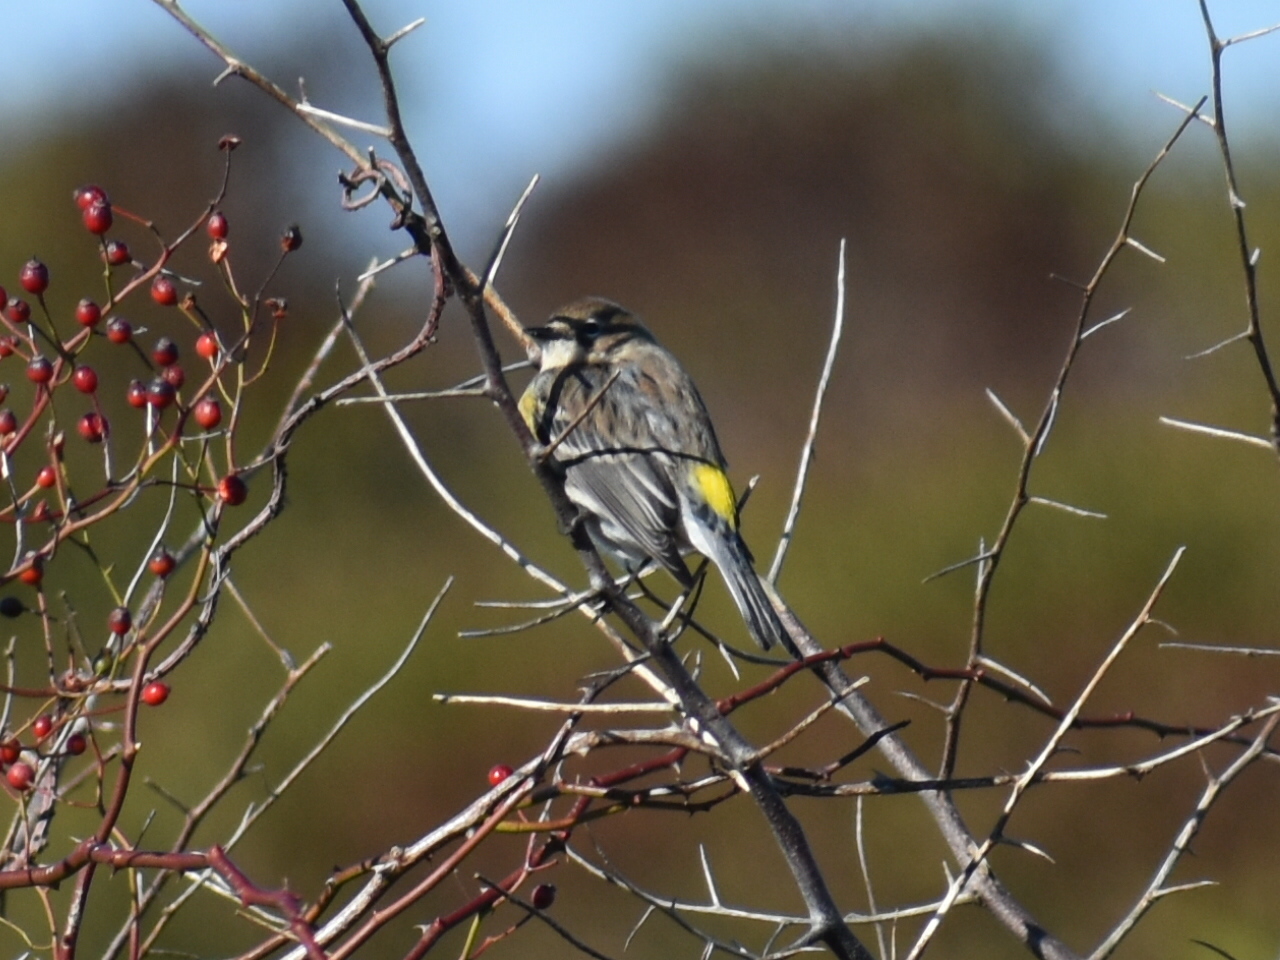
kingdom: Animalia
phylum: Chordata
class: Aves
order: Passeriformes
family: Parulidae
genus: Setophaga
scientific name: Setophaga coronata
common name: Myrtle warbler
